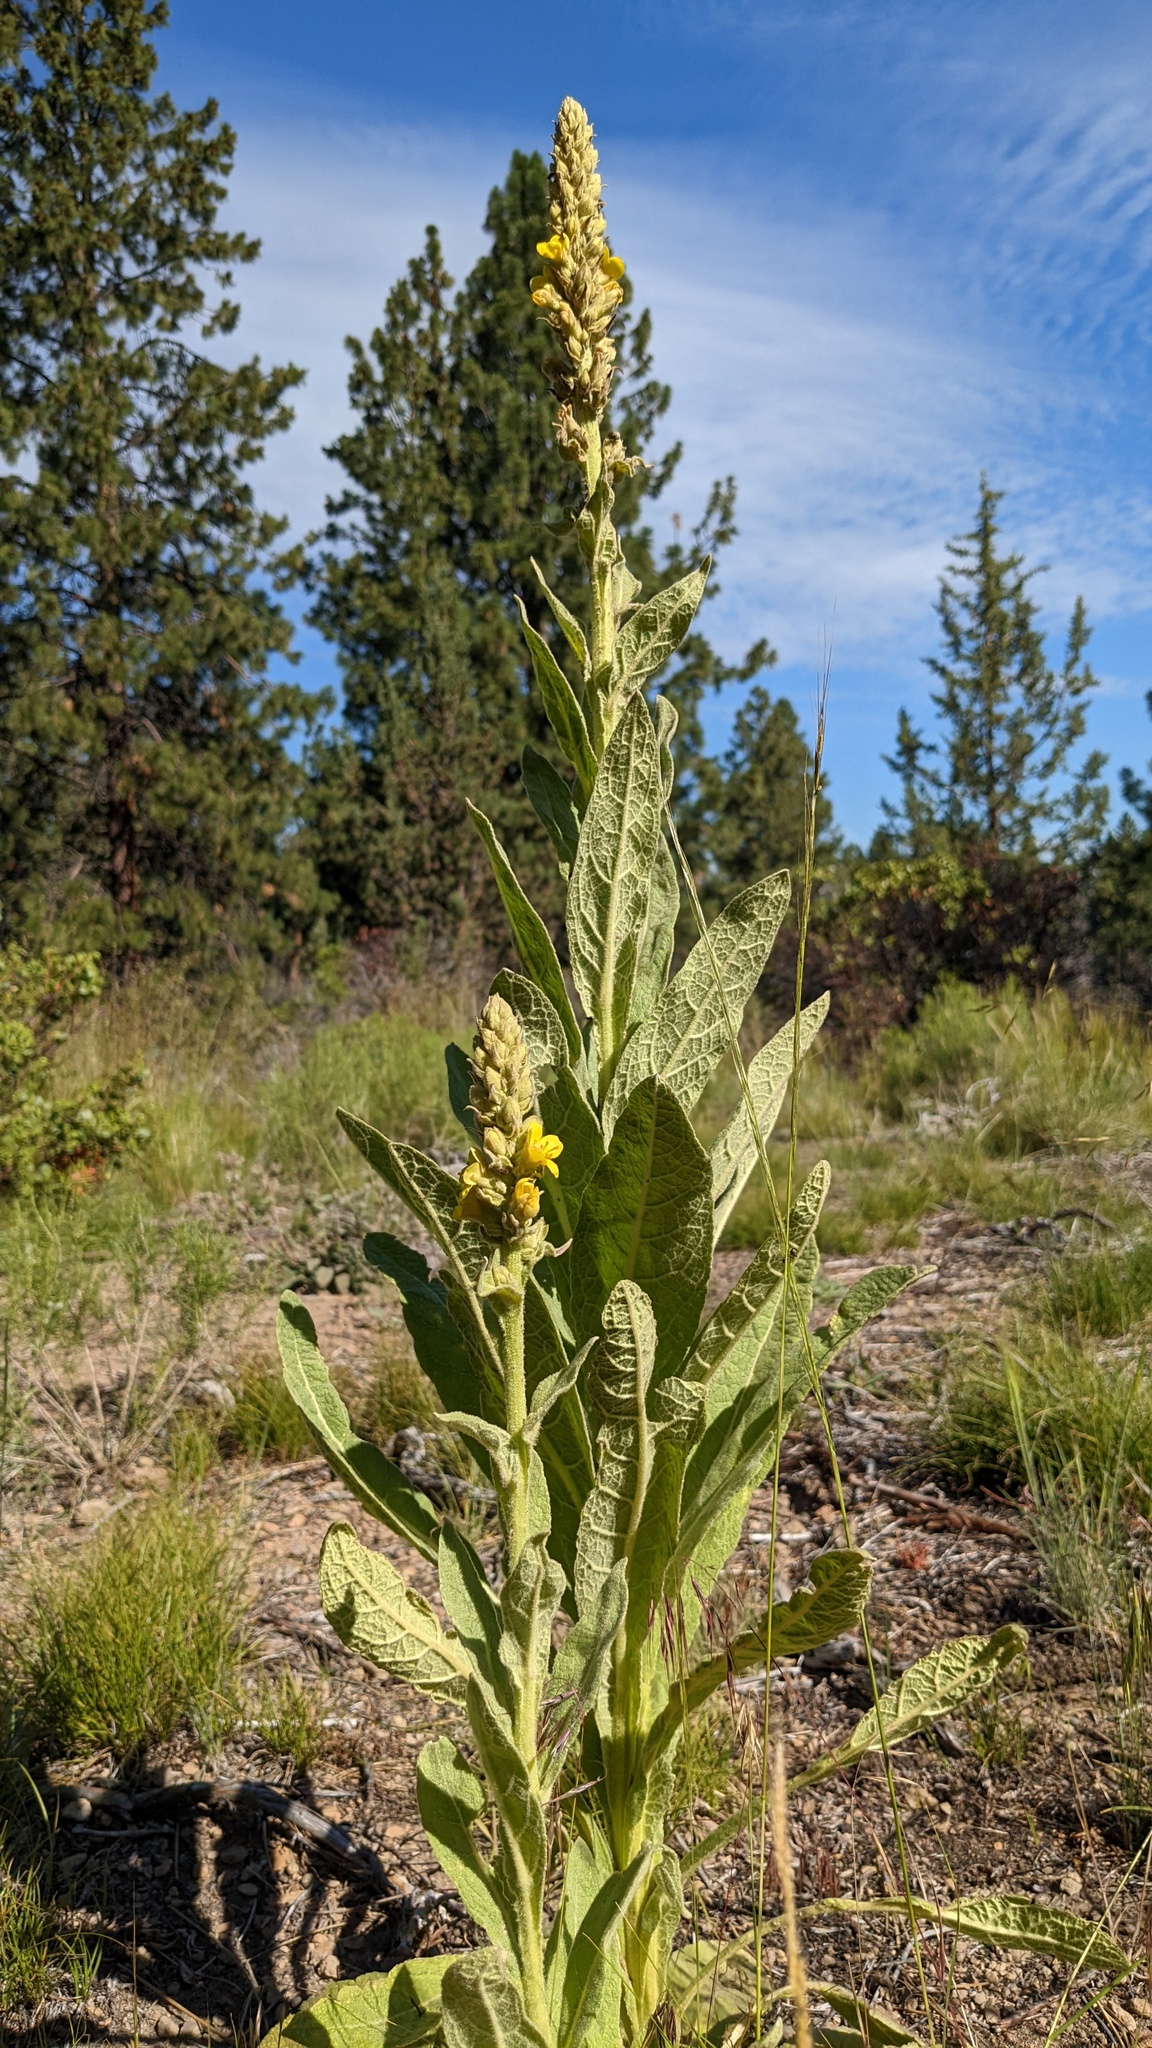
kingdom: Plantae
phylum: Tracheophyta
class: Magnoliopsida
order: Lamiales
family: Scrophulariaceae
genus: Verbascum
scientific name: Verbascum thapsus
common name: Common mullein
